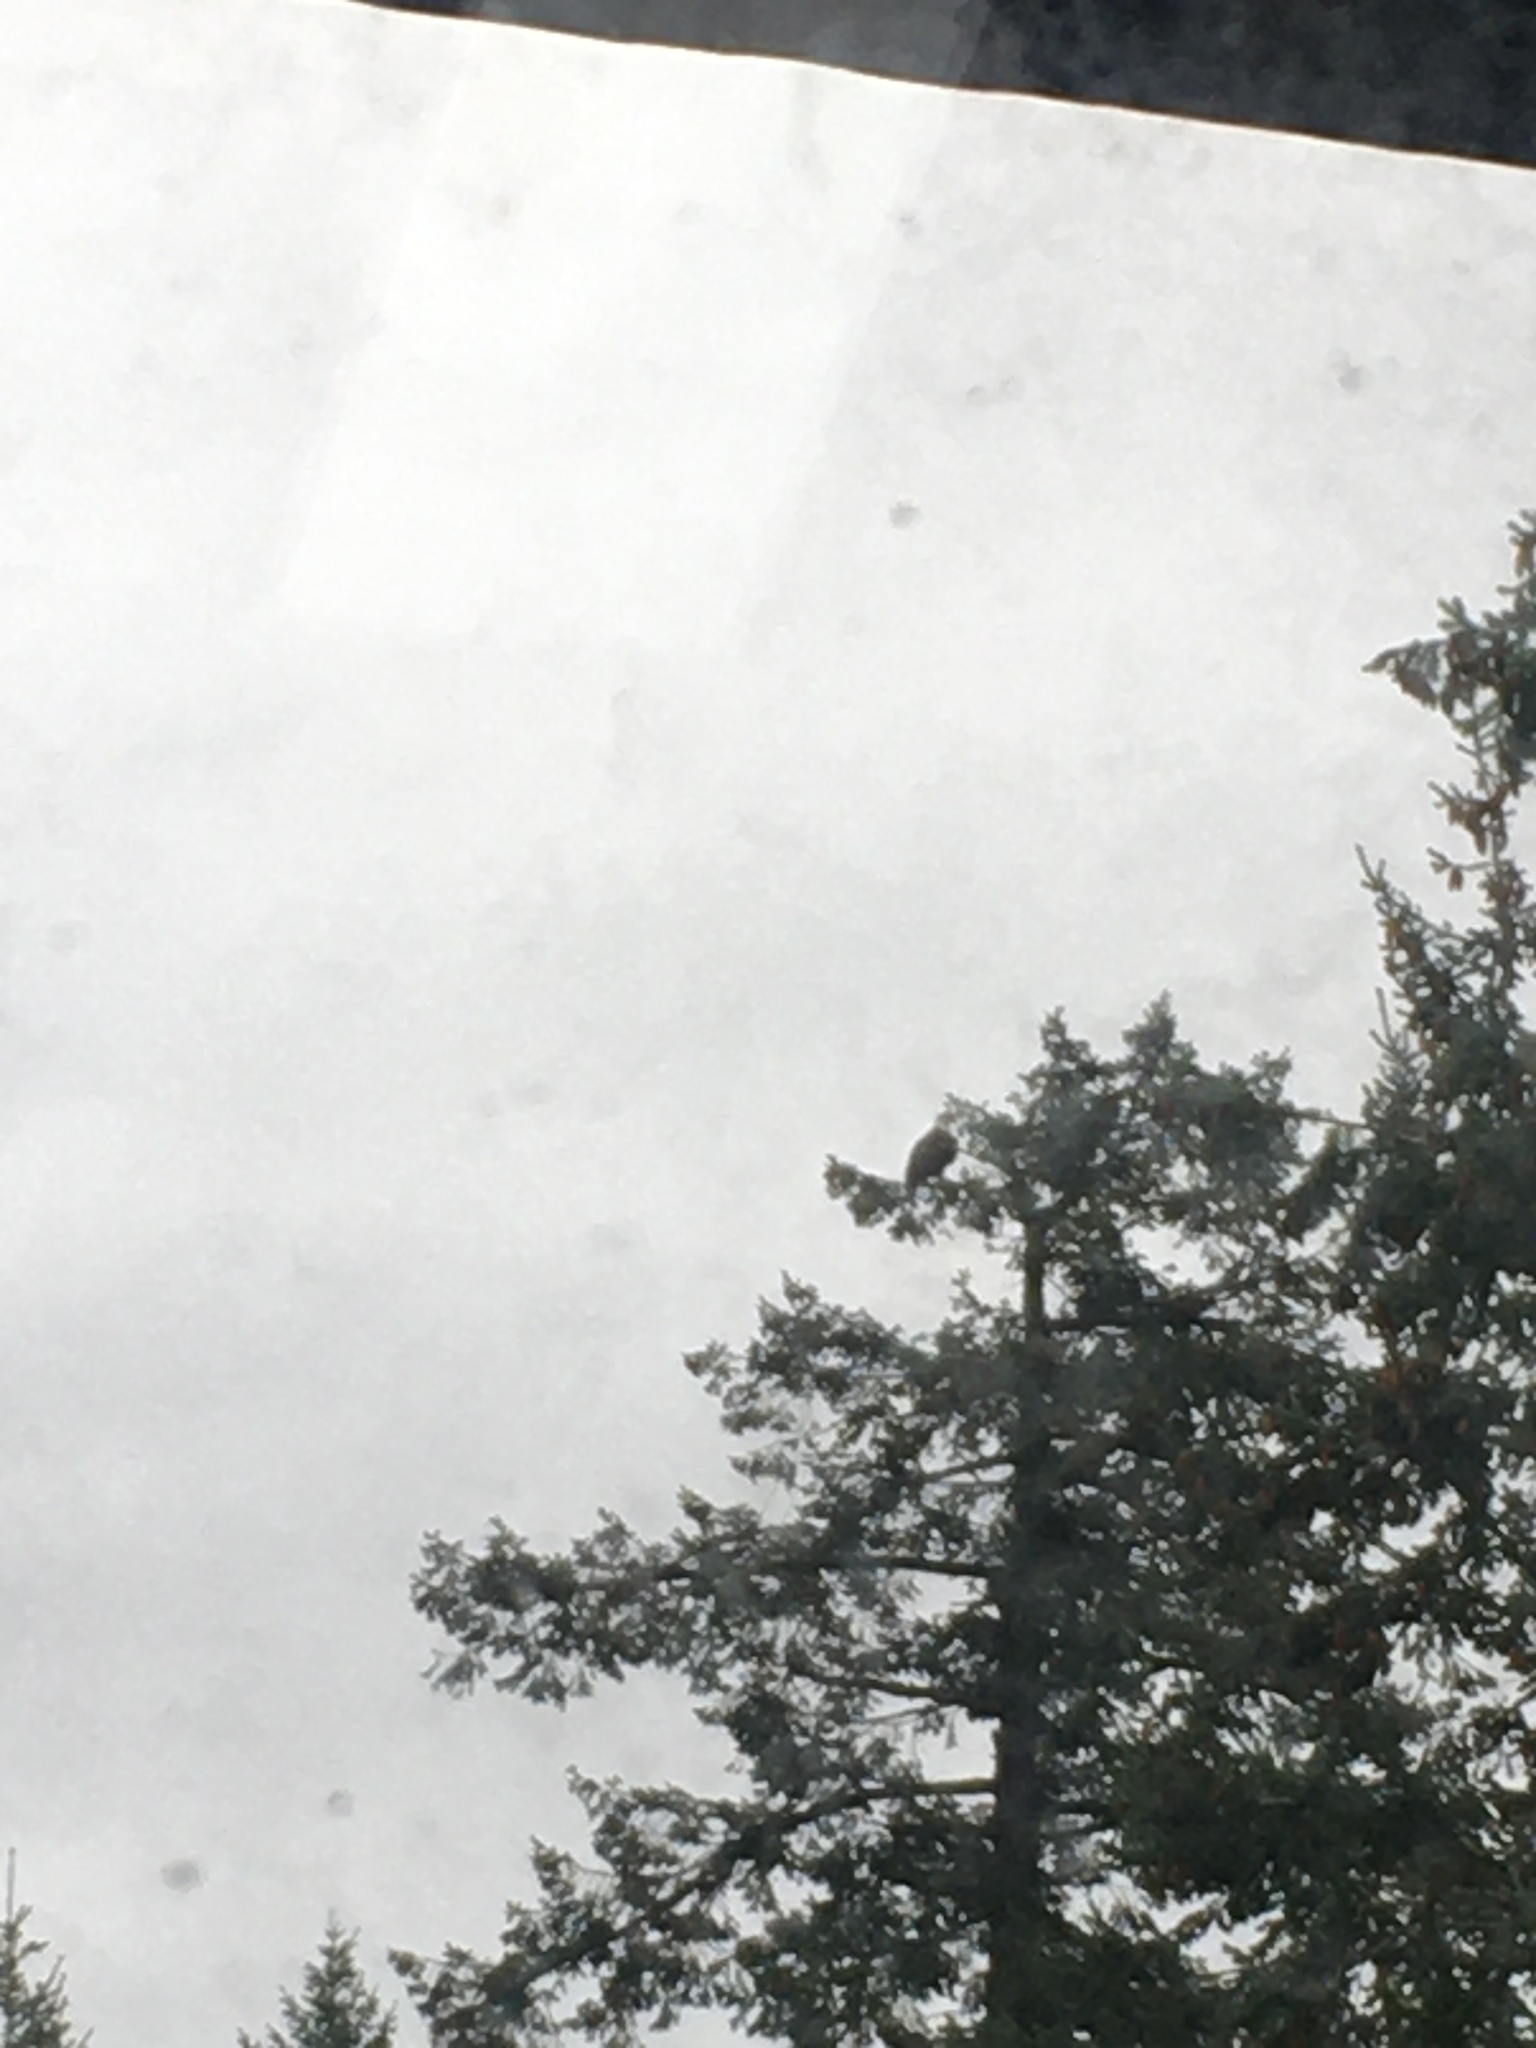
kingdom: Animalia
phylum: Chordata
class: Aves
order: Accipitriformes
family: Accipitridae
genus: Haliaeetus
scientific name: Haliaeetus leucocephalus
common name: Bald eagle
